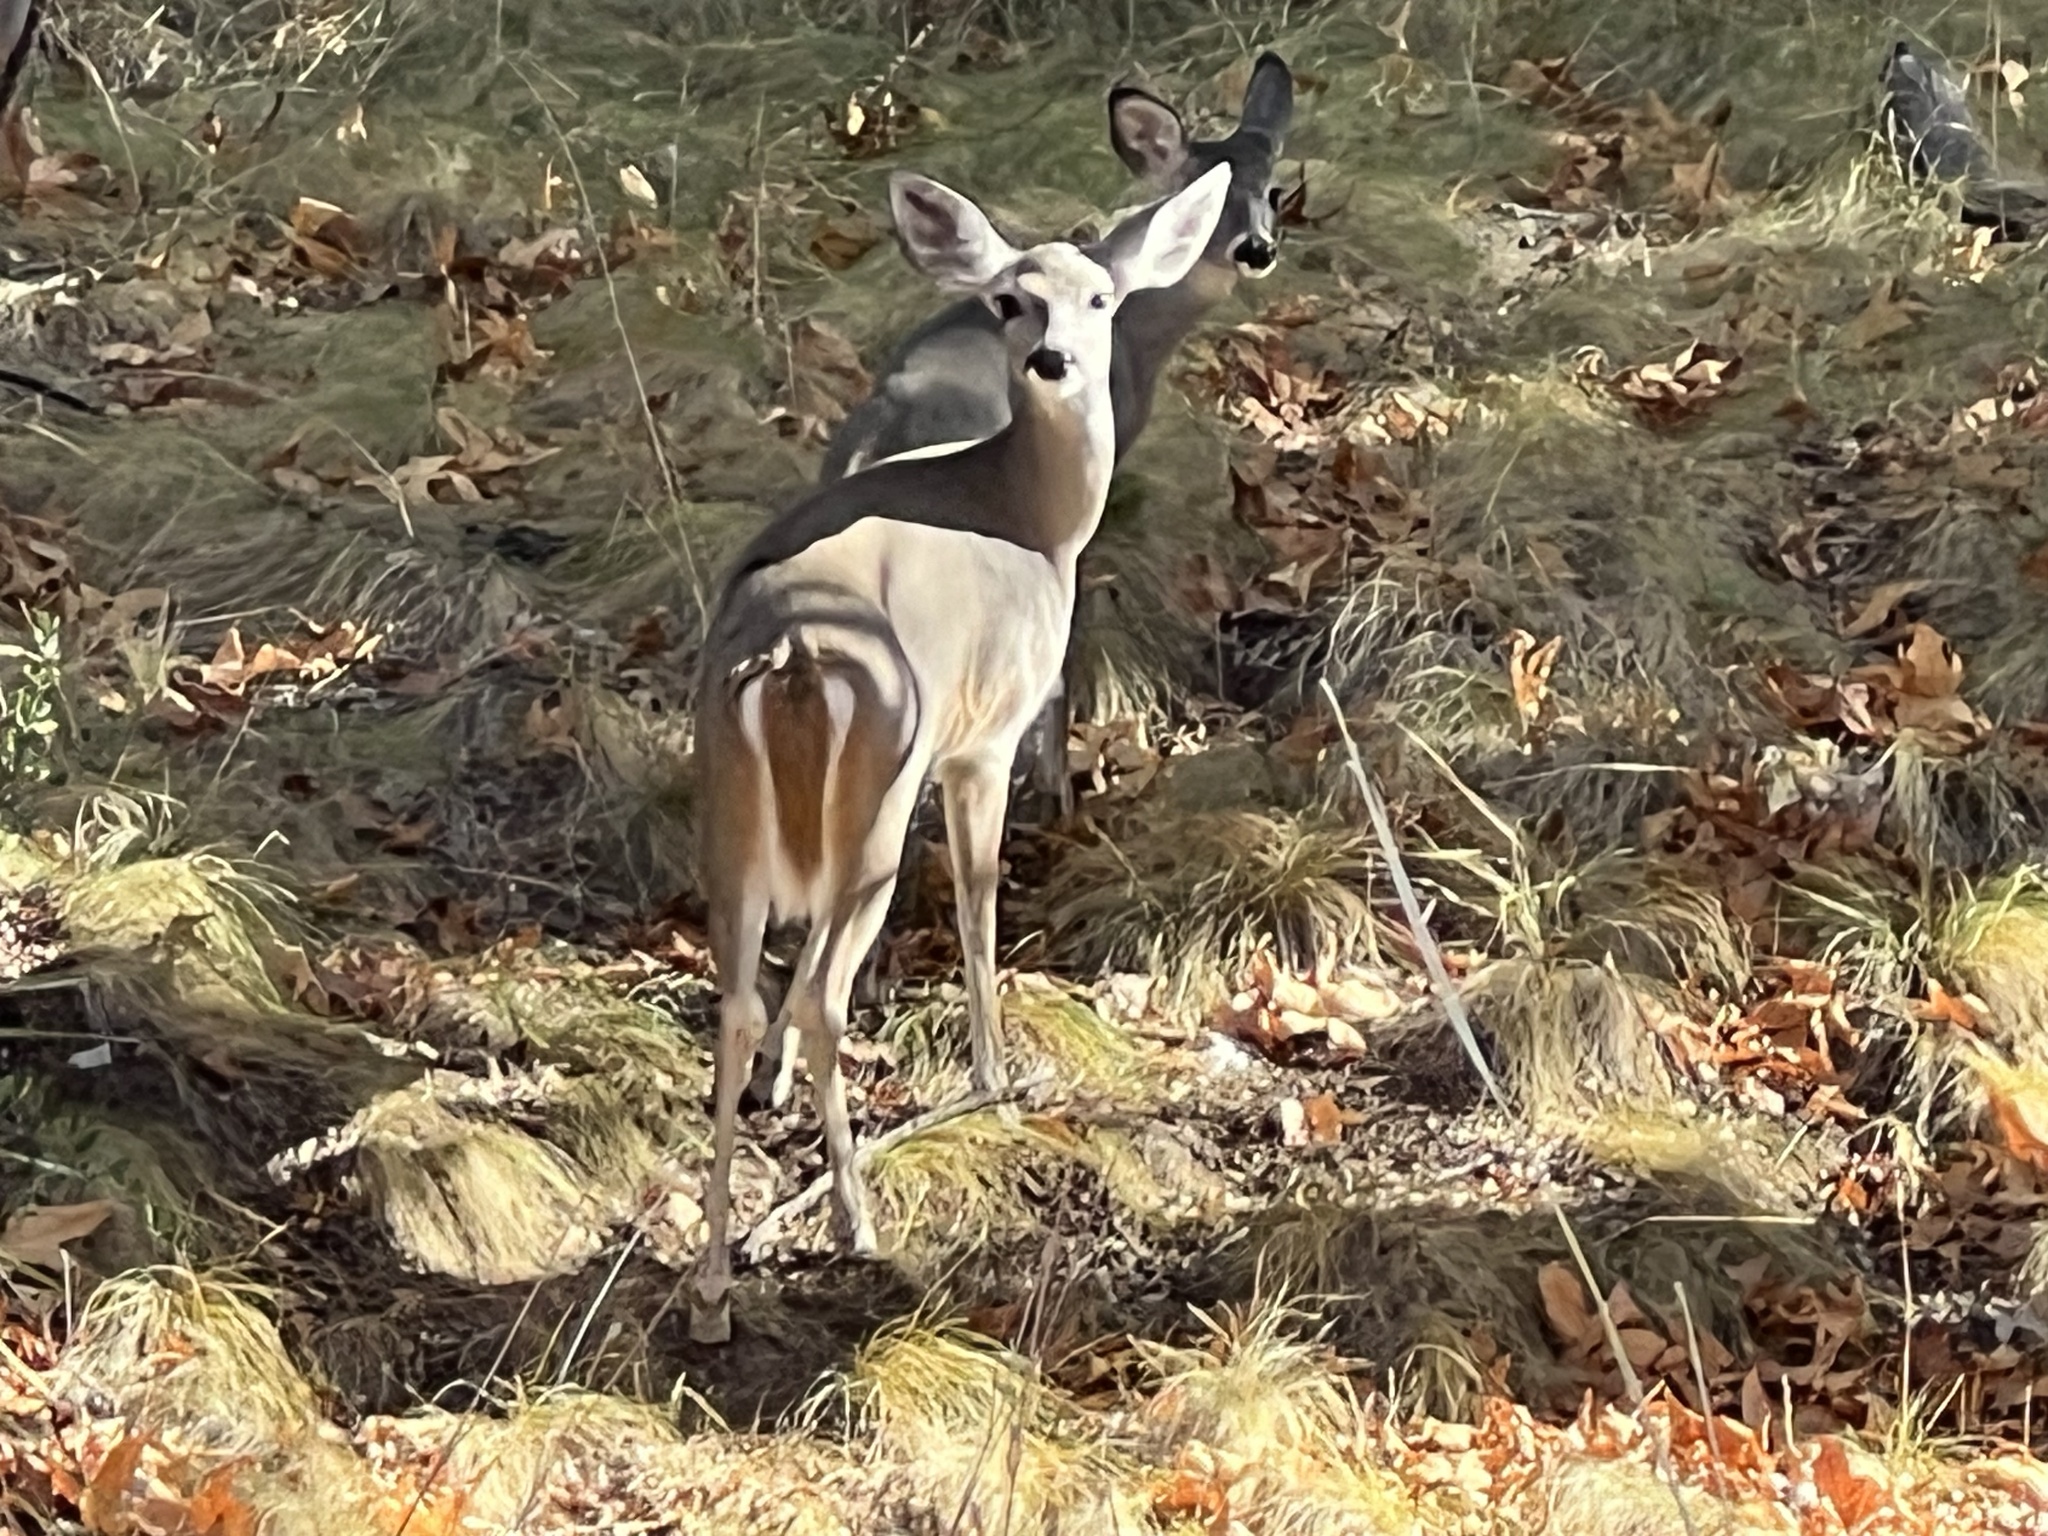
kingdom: Animalia
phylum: Chordata
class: Mammalia
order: Artiodactyla
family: Cervidae
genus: Odocoileus
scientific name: Odocoileus virginianus
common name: White-tailed deer
